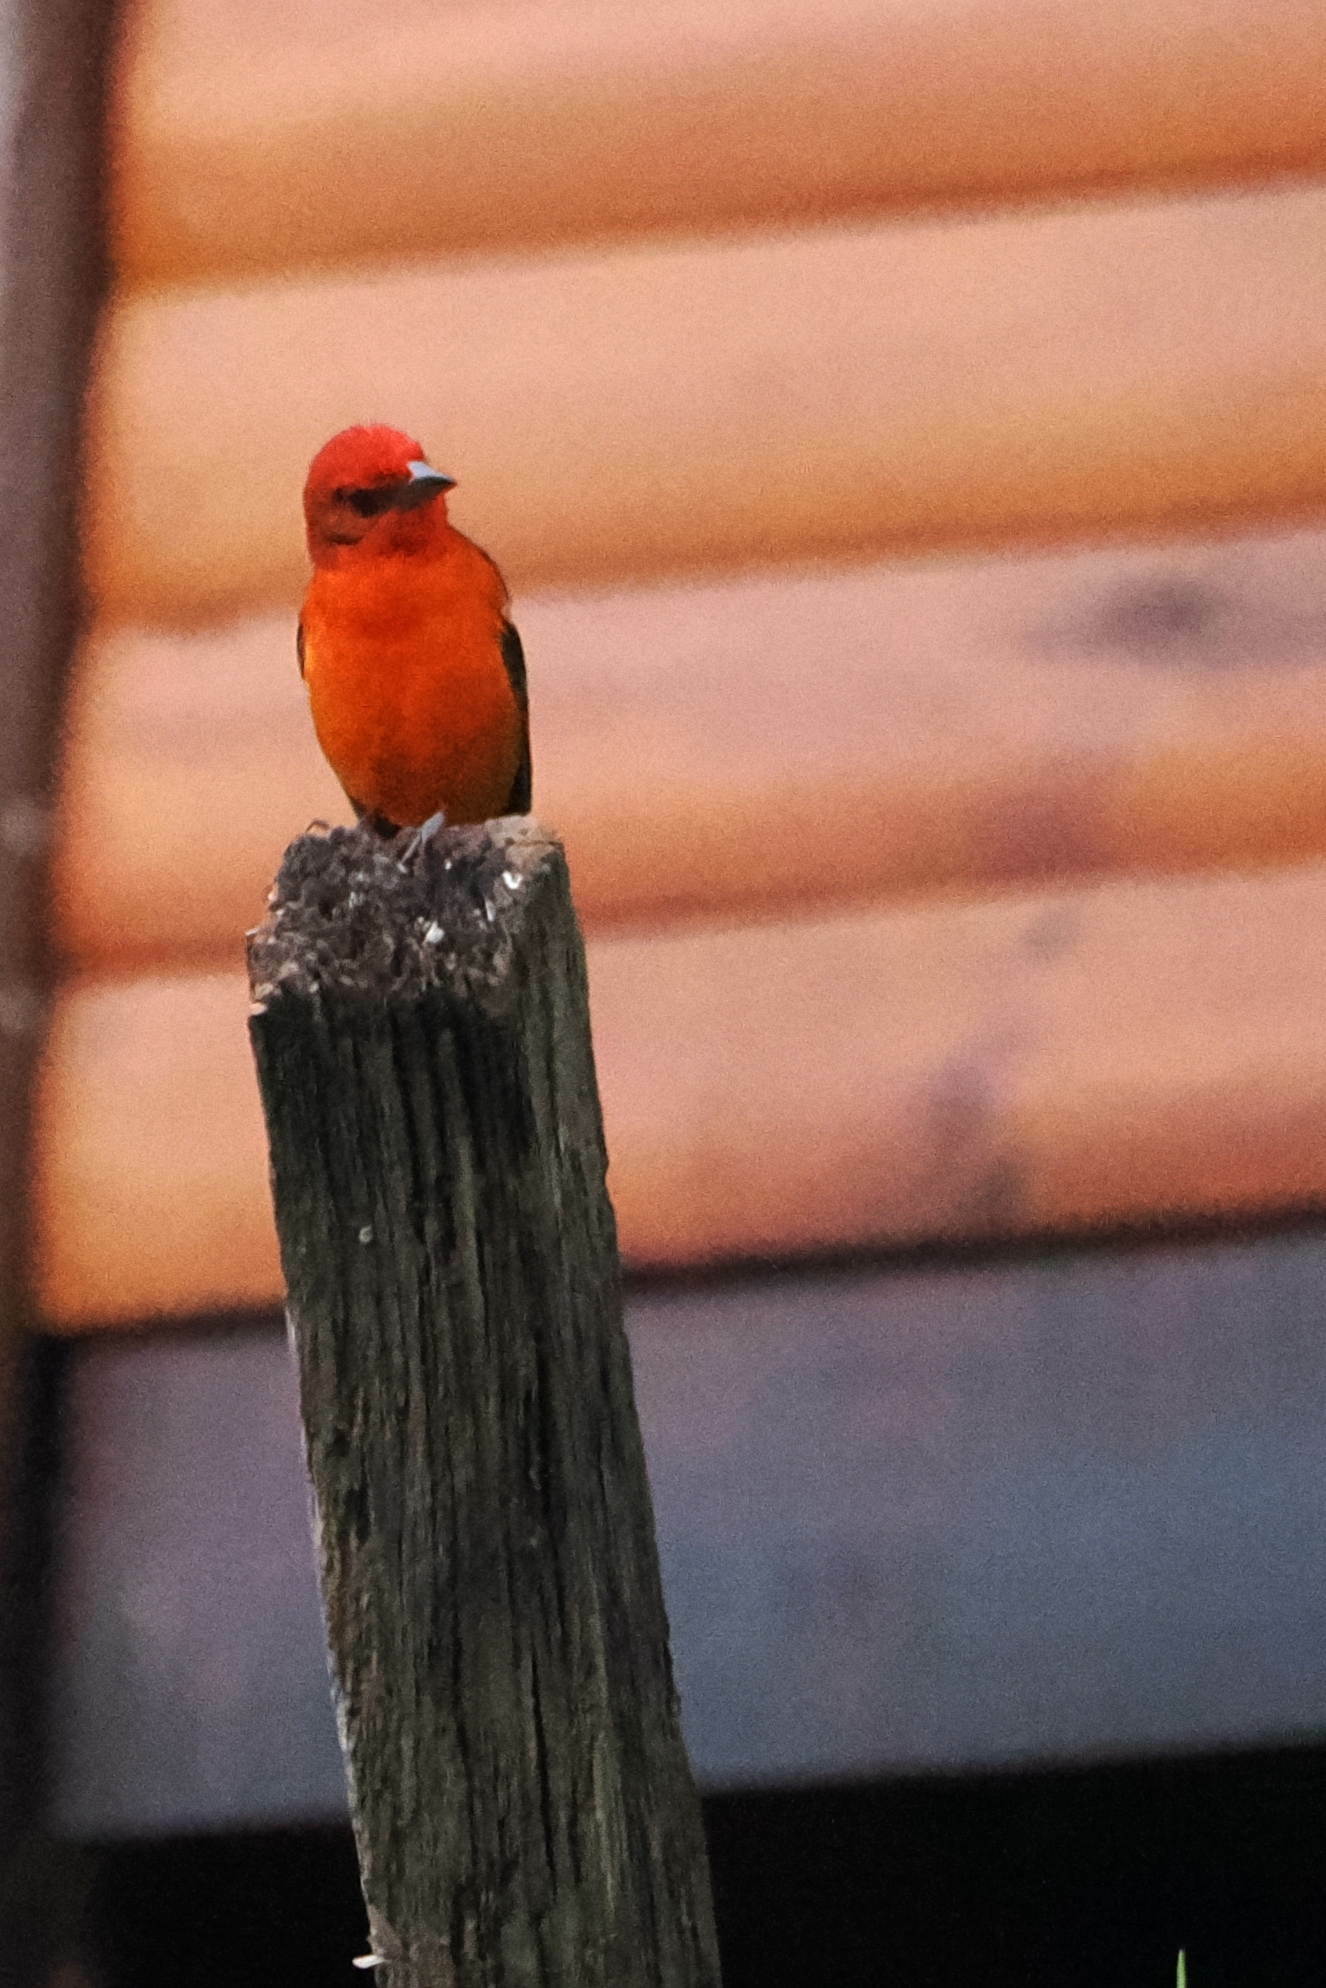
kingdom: Animalia
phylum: Chordata
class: Aves
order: Passeriformes
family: Cardinalidae
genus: Piranga
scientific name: Piranga bidentata
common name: Flame-colored tanager
